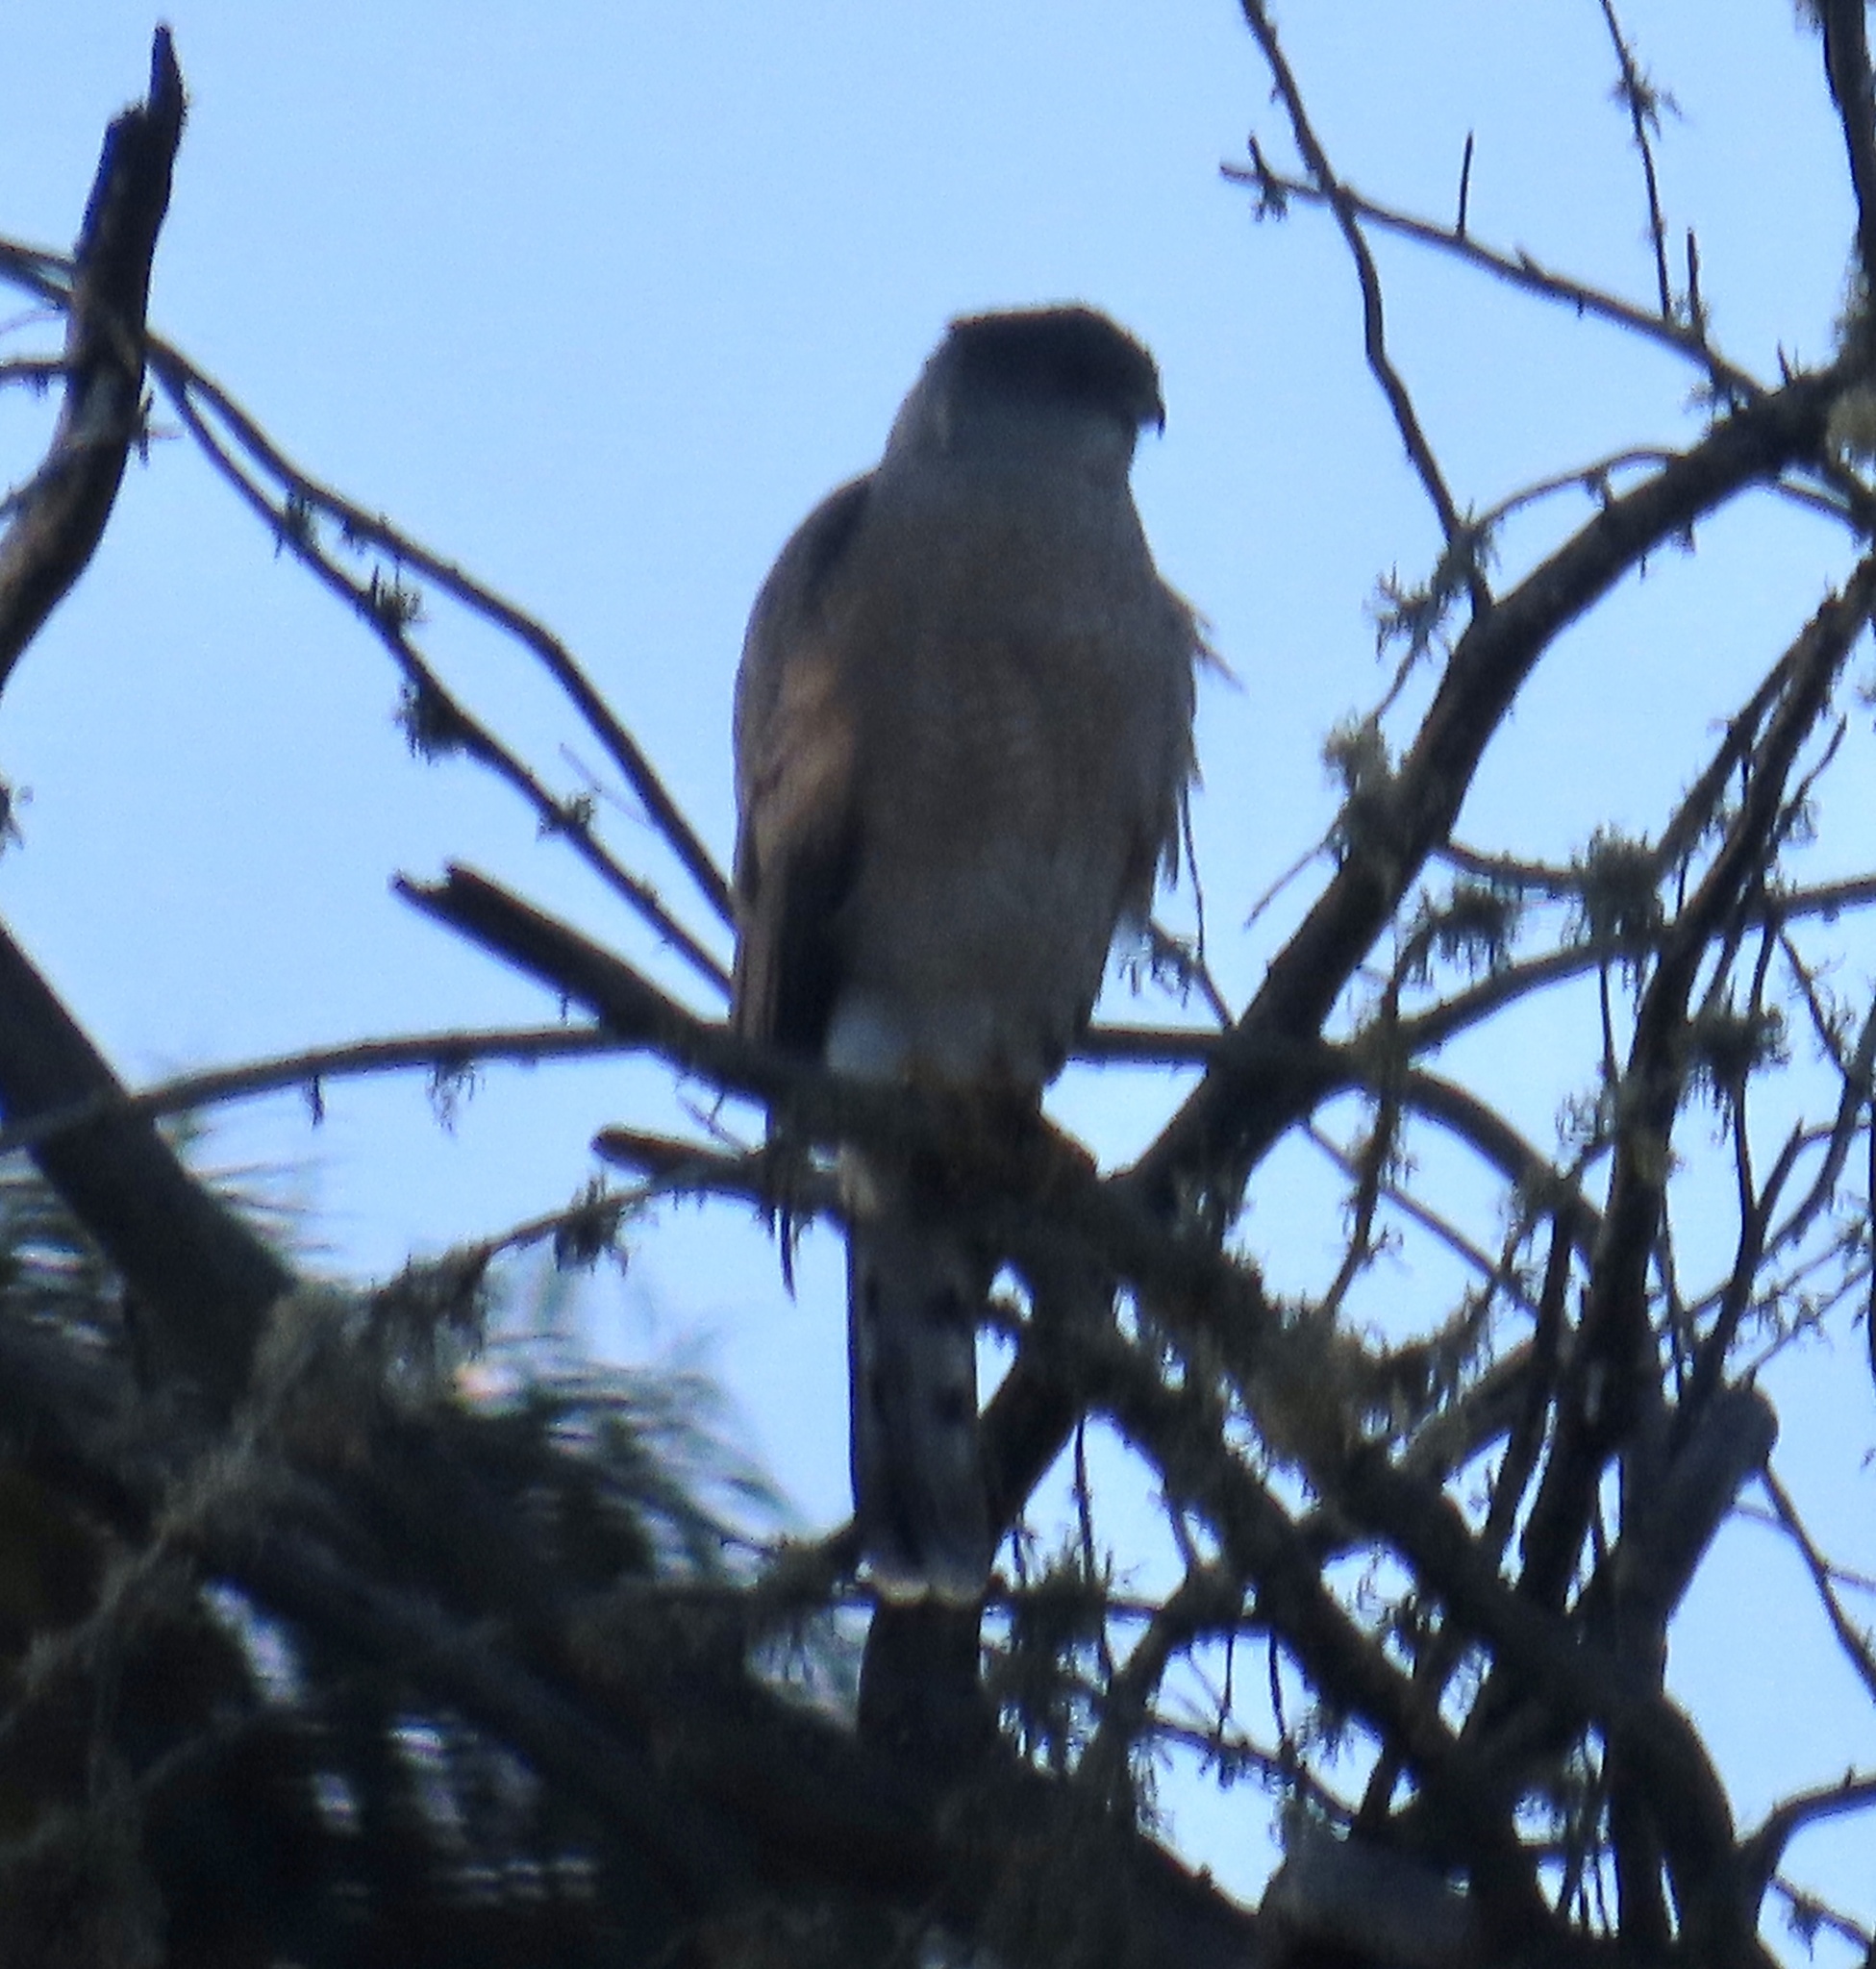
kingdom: Animalia
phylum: Chordata
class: Aves
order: Accipitriformes
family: Accipitridae
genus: Accipiter
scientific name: Accipiter cooperii
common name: Cooper's hawk
